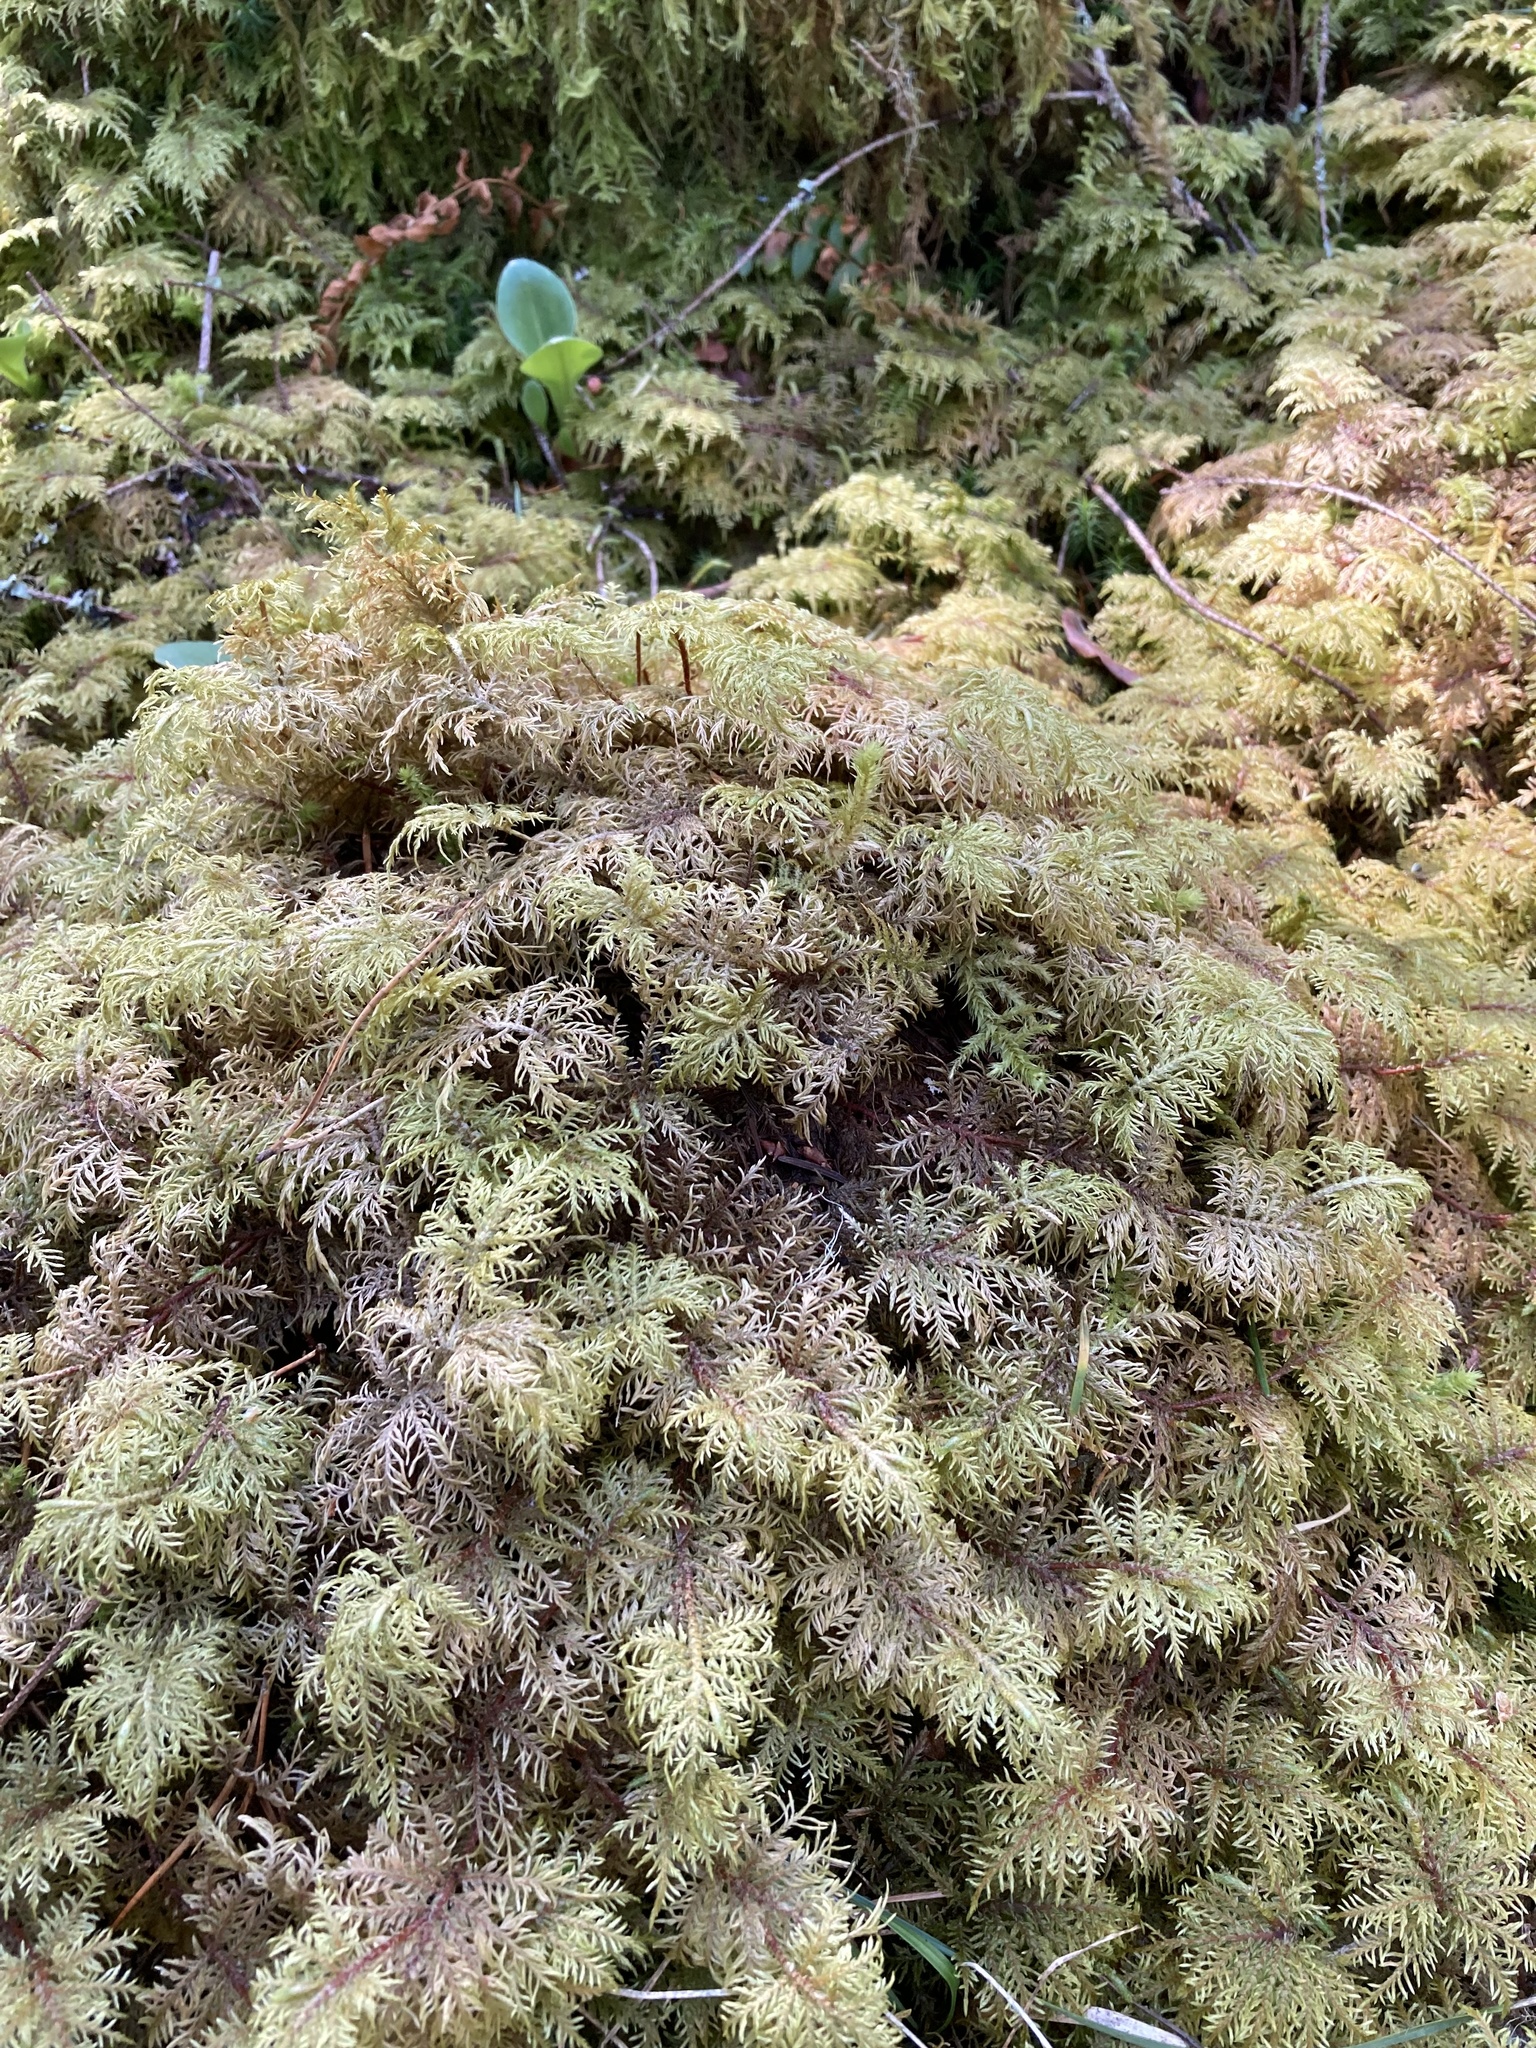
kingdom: Plantae
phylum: Bryophyta
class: Bryopsida
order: Hypnales
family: Hylocomiaceae
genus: Hylocomium
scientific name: Hylocomium splendens
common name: Stairstep moss
